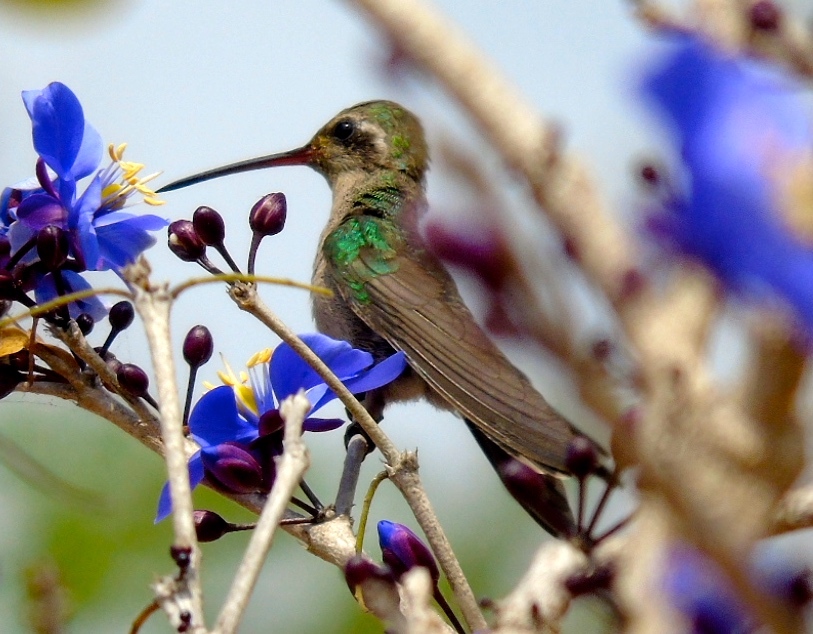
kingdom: Animalia
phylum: Chordata
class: Aves
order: Apodiformes
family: Trochilidae
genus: Cynanthus
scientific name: Cynanthus latirostris
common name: Broad-billed hummingbird
